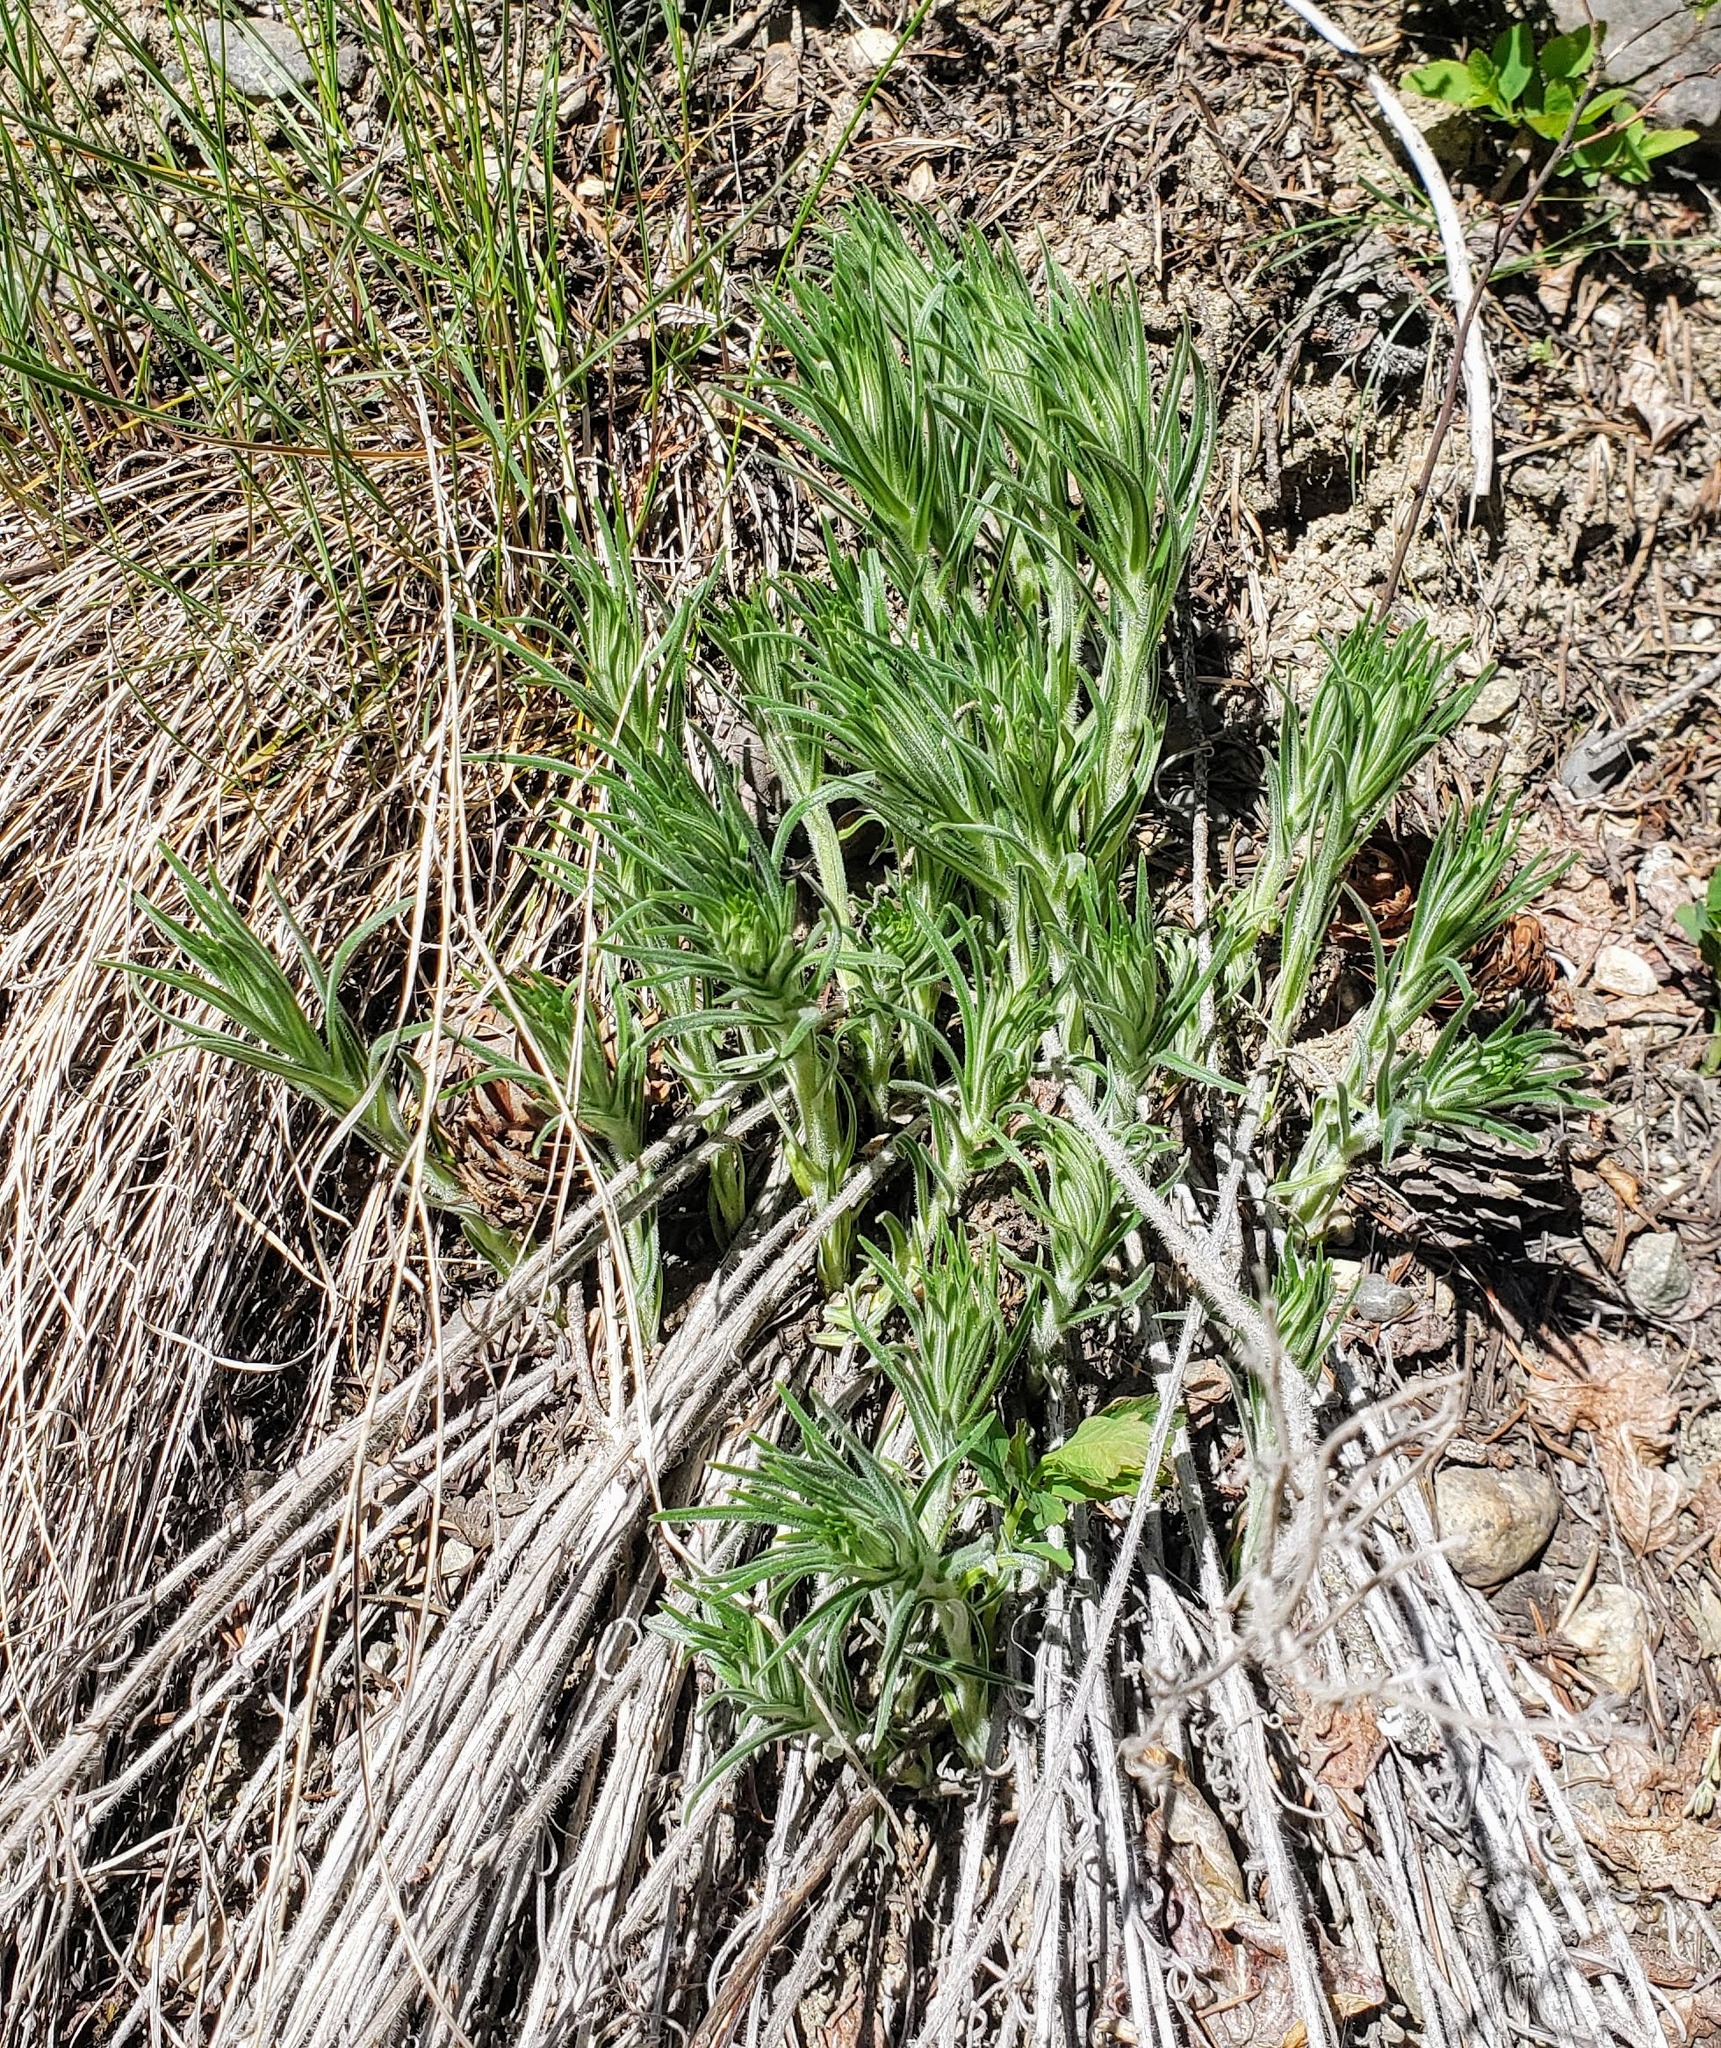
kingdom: Plantae
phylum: Tracheophyta
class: Magnoliopsida
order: Boraginales
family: Boraginaceae
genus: Lithospermum
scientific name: Lithospermum ruderale
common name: Western gromwell
